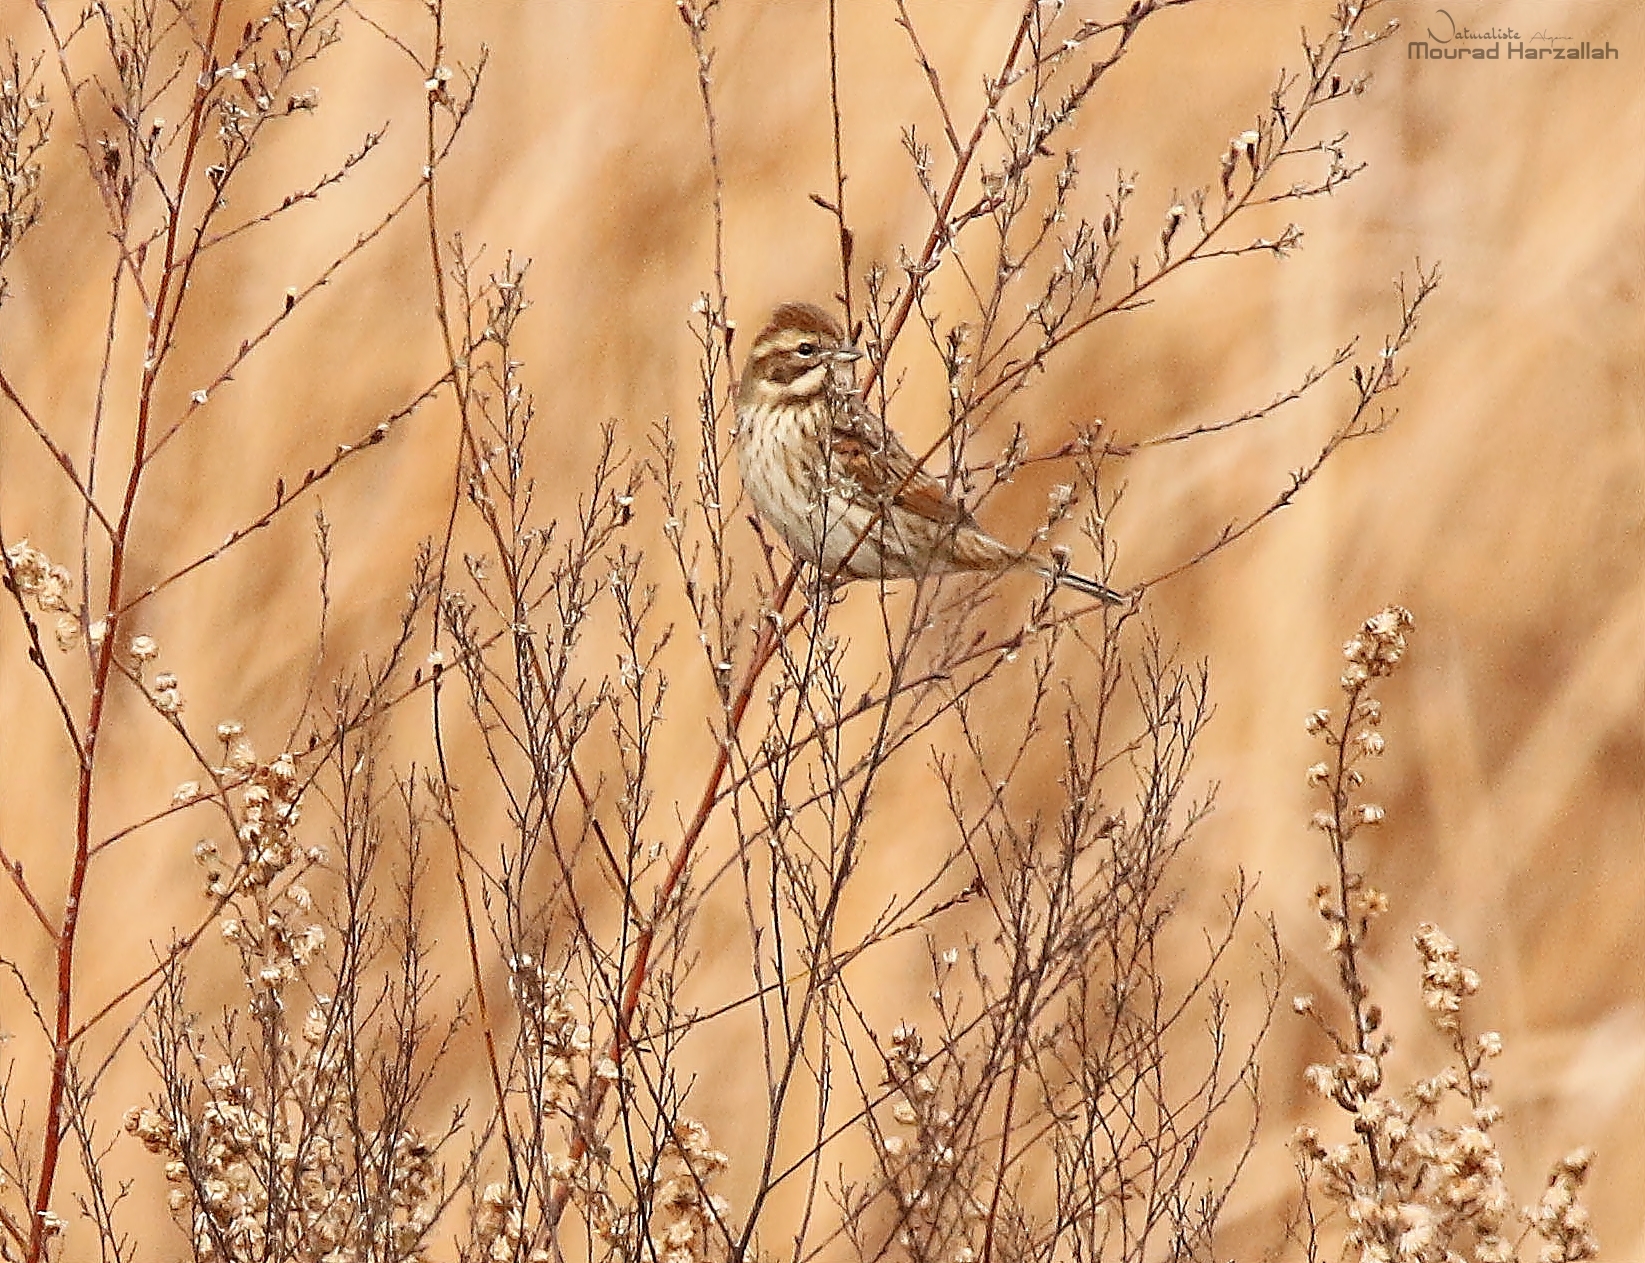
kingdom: Animalia
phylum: Chordata
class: Aves
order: Passeriformes
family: Emberizidae
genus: Emberiza
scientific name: Emberiza schoeniclus
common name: Reed bunting
